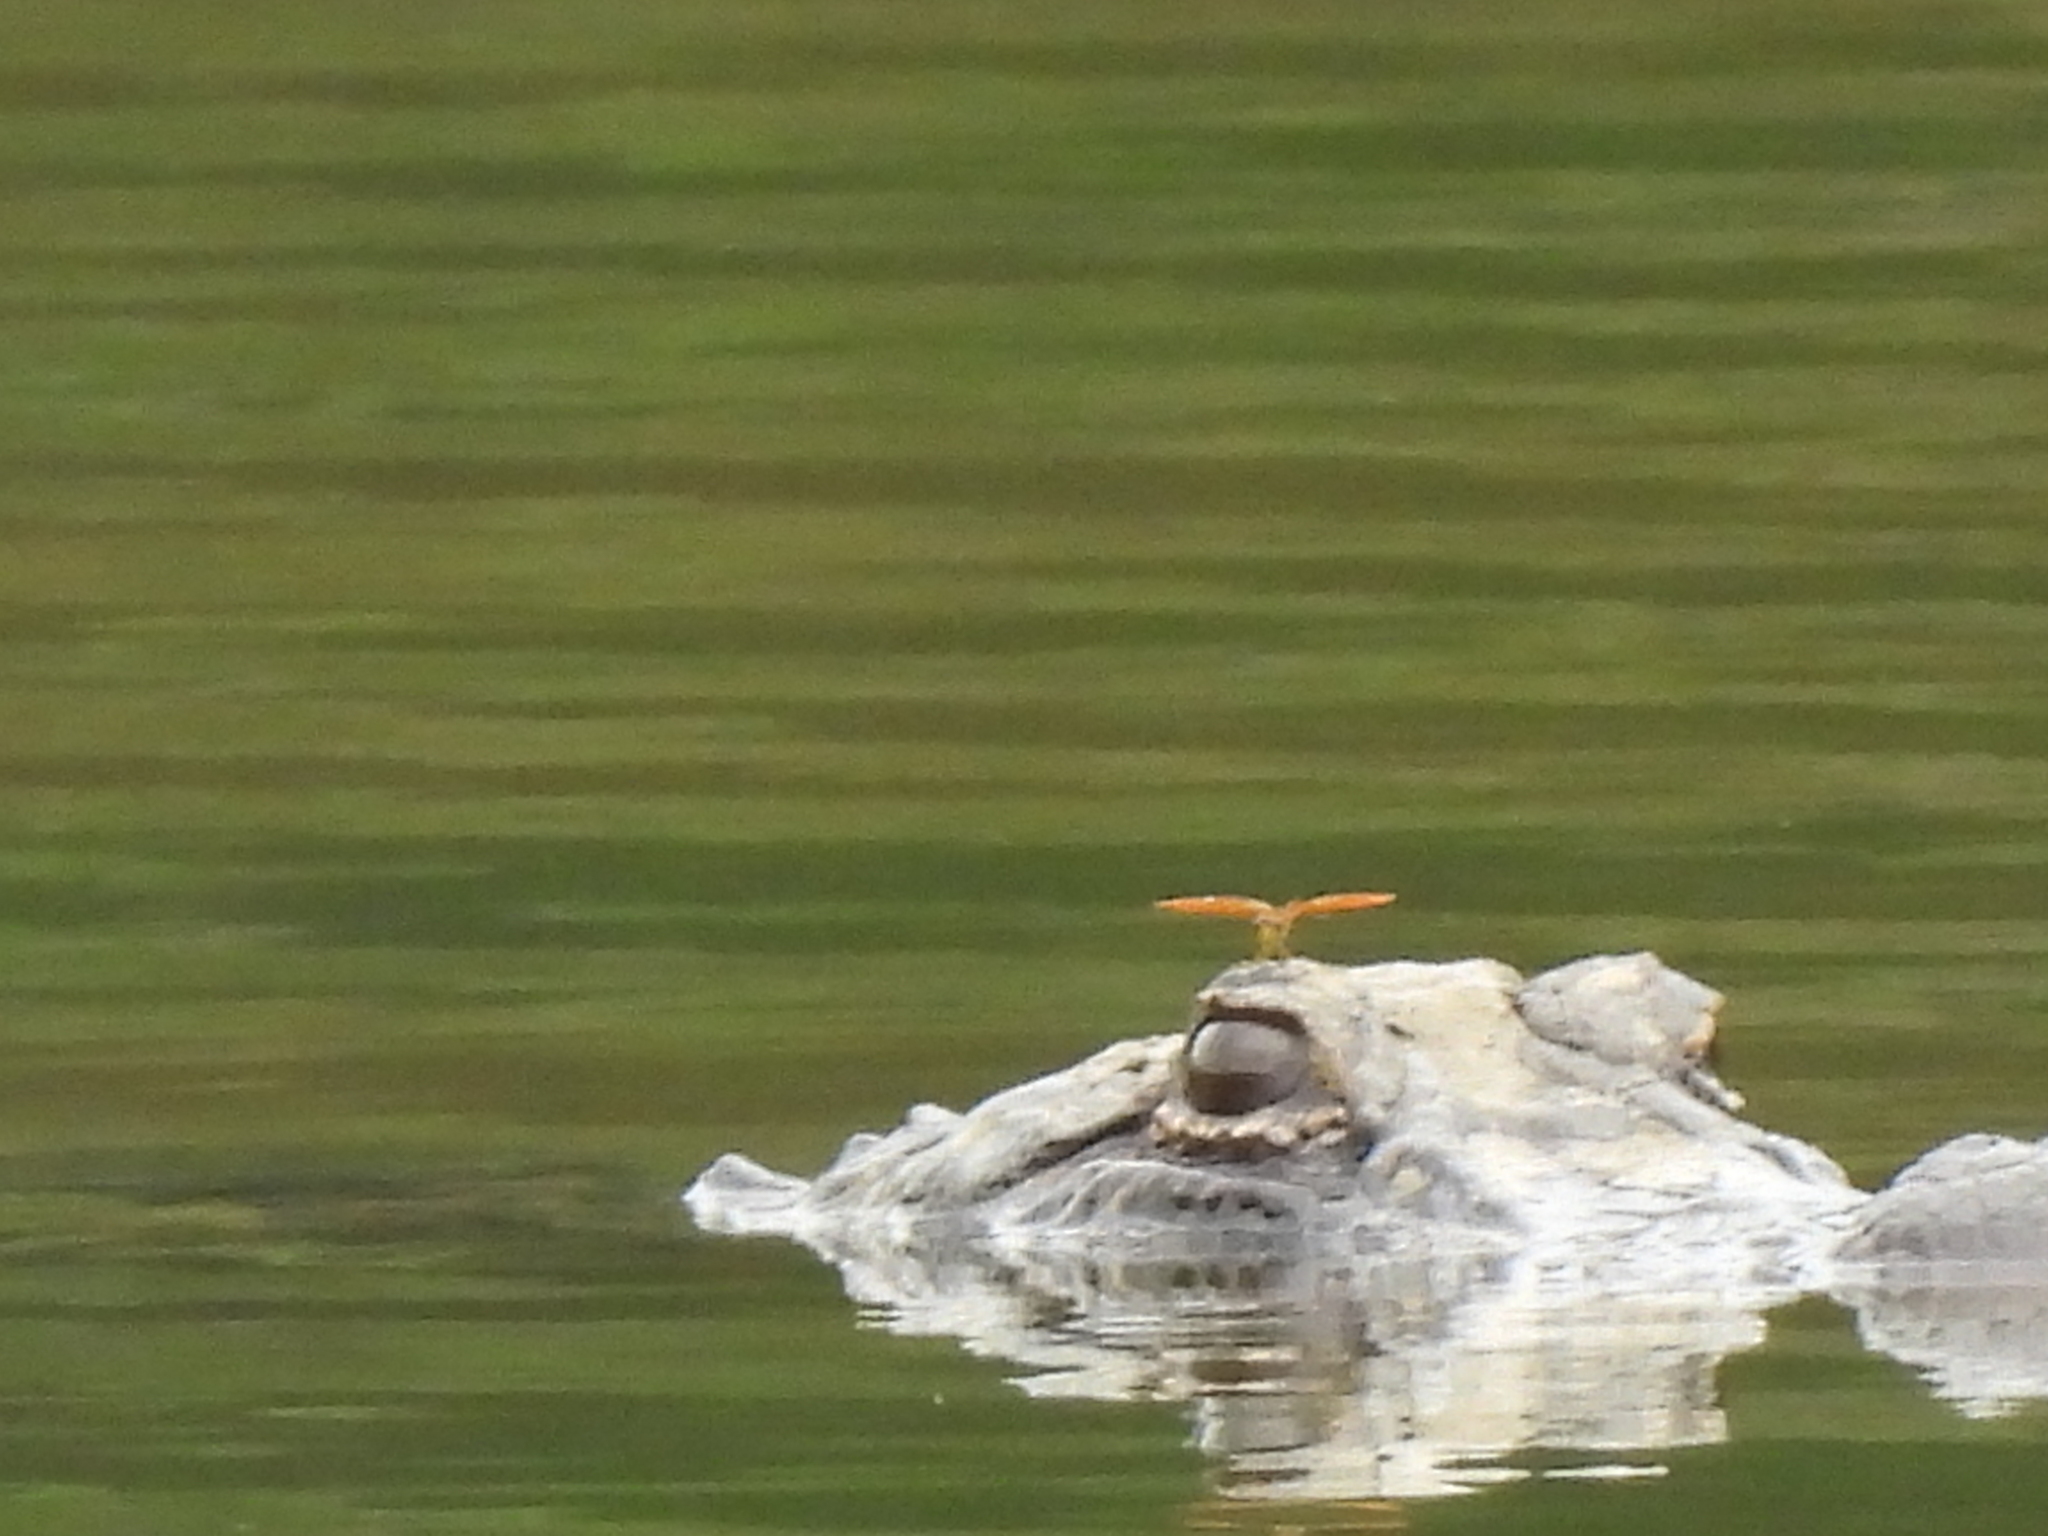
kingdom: Animalia
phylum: Chordata
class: Crocodylia
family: Alligatoridae
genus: Alligator
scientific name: Alligator mississippiensis
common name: American alligator
